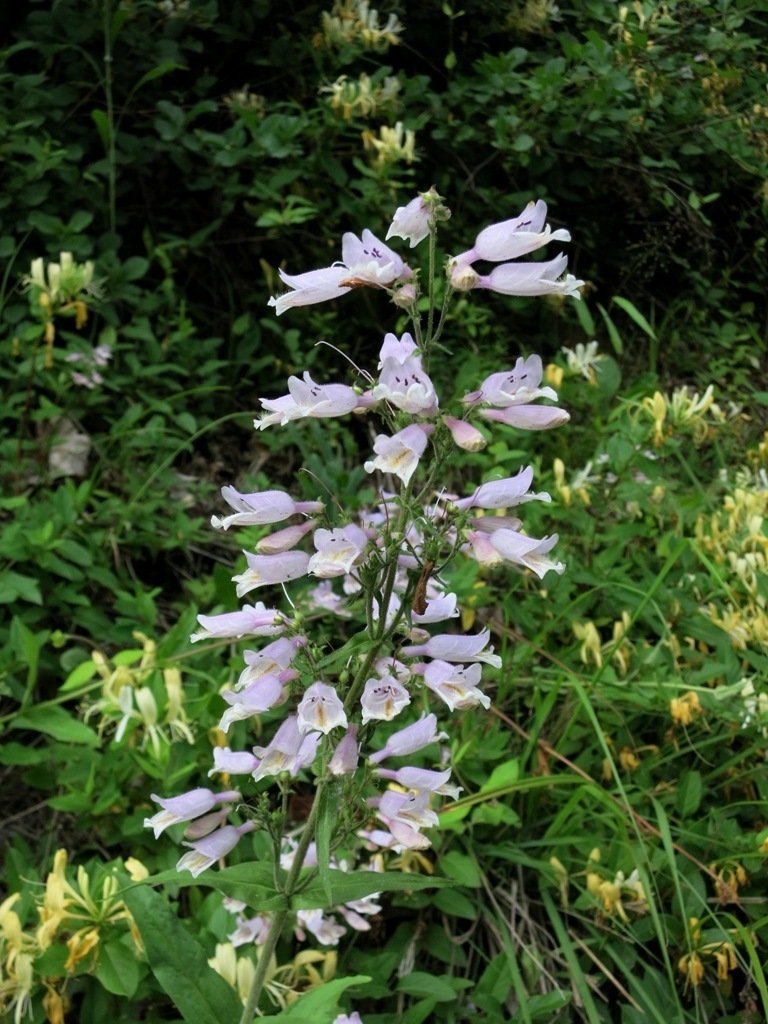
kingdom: Plantae
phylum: Tracheophyta
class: Magnoliopsida
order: Lamiales
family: Plantaginaceae
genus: Penstemon
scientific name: Penstemon canescens
